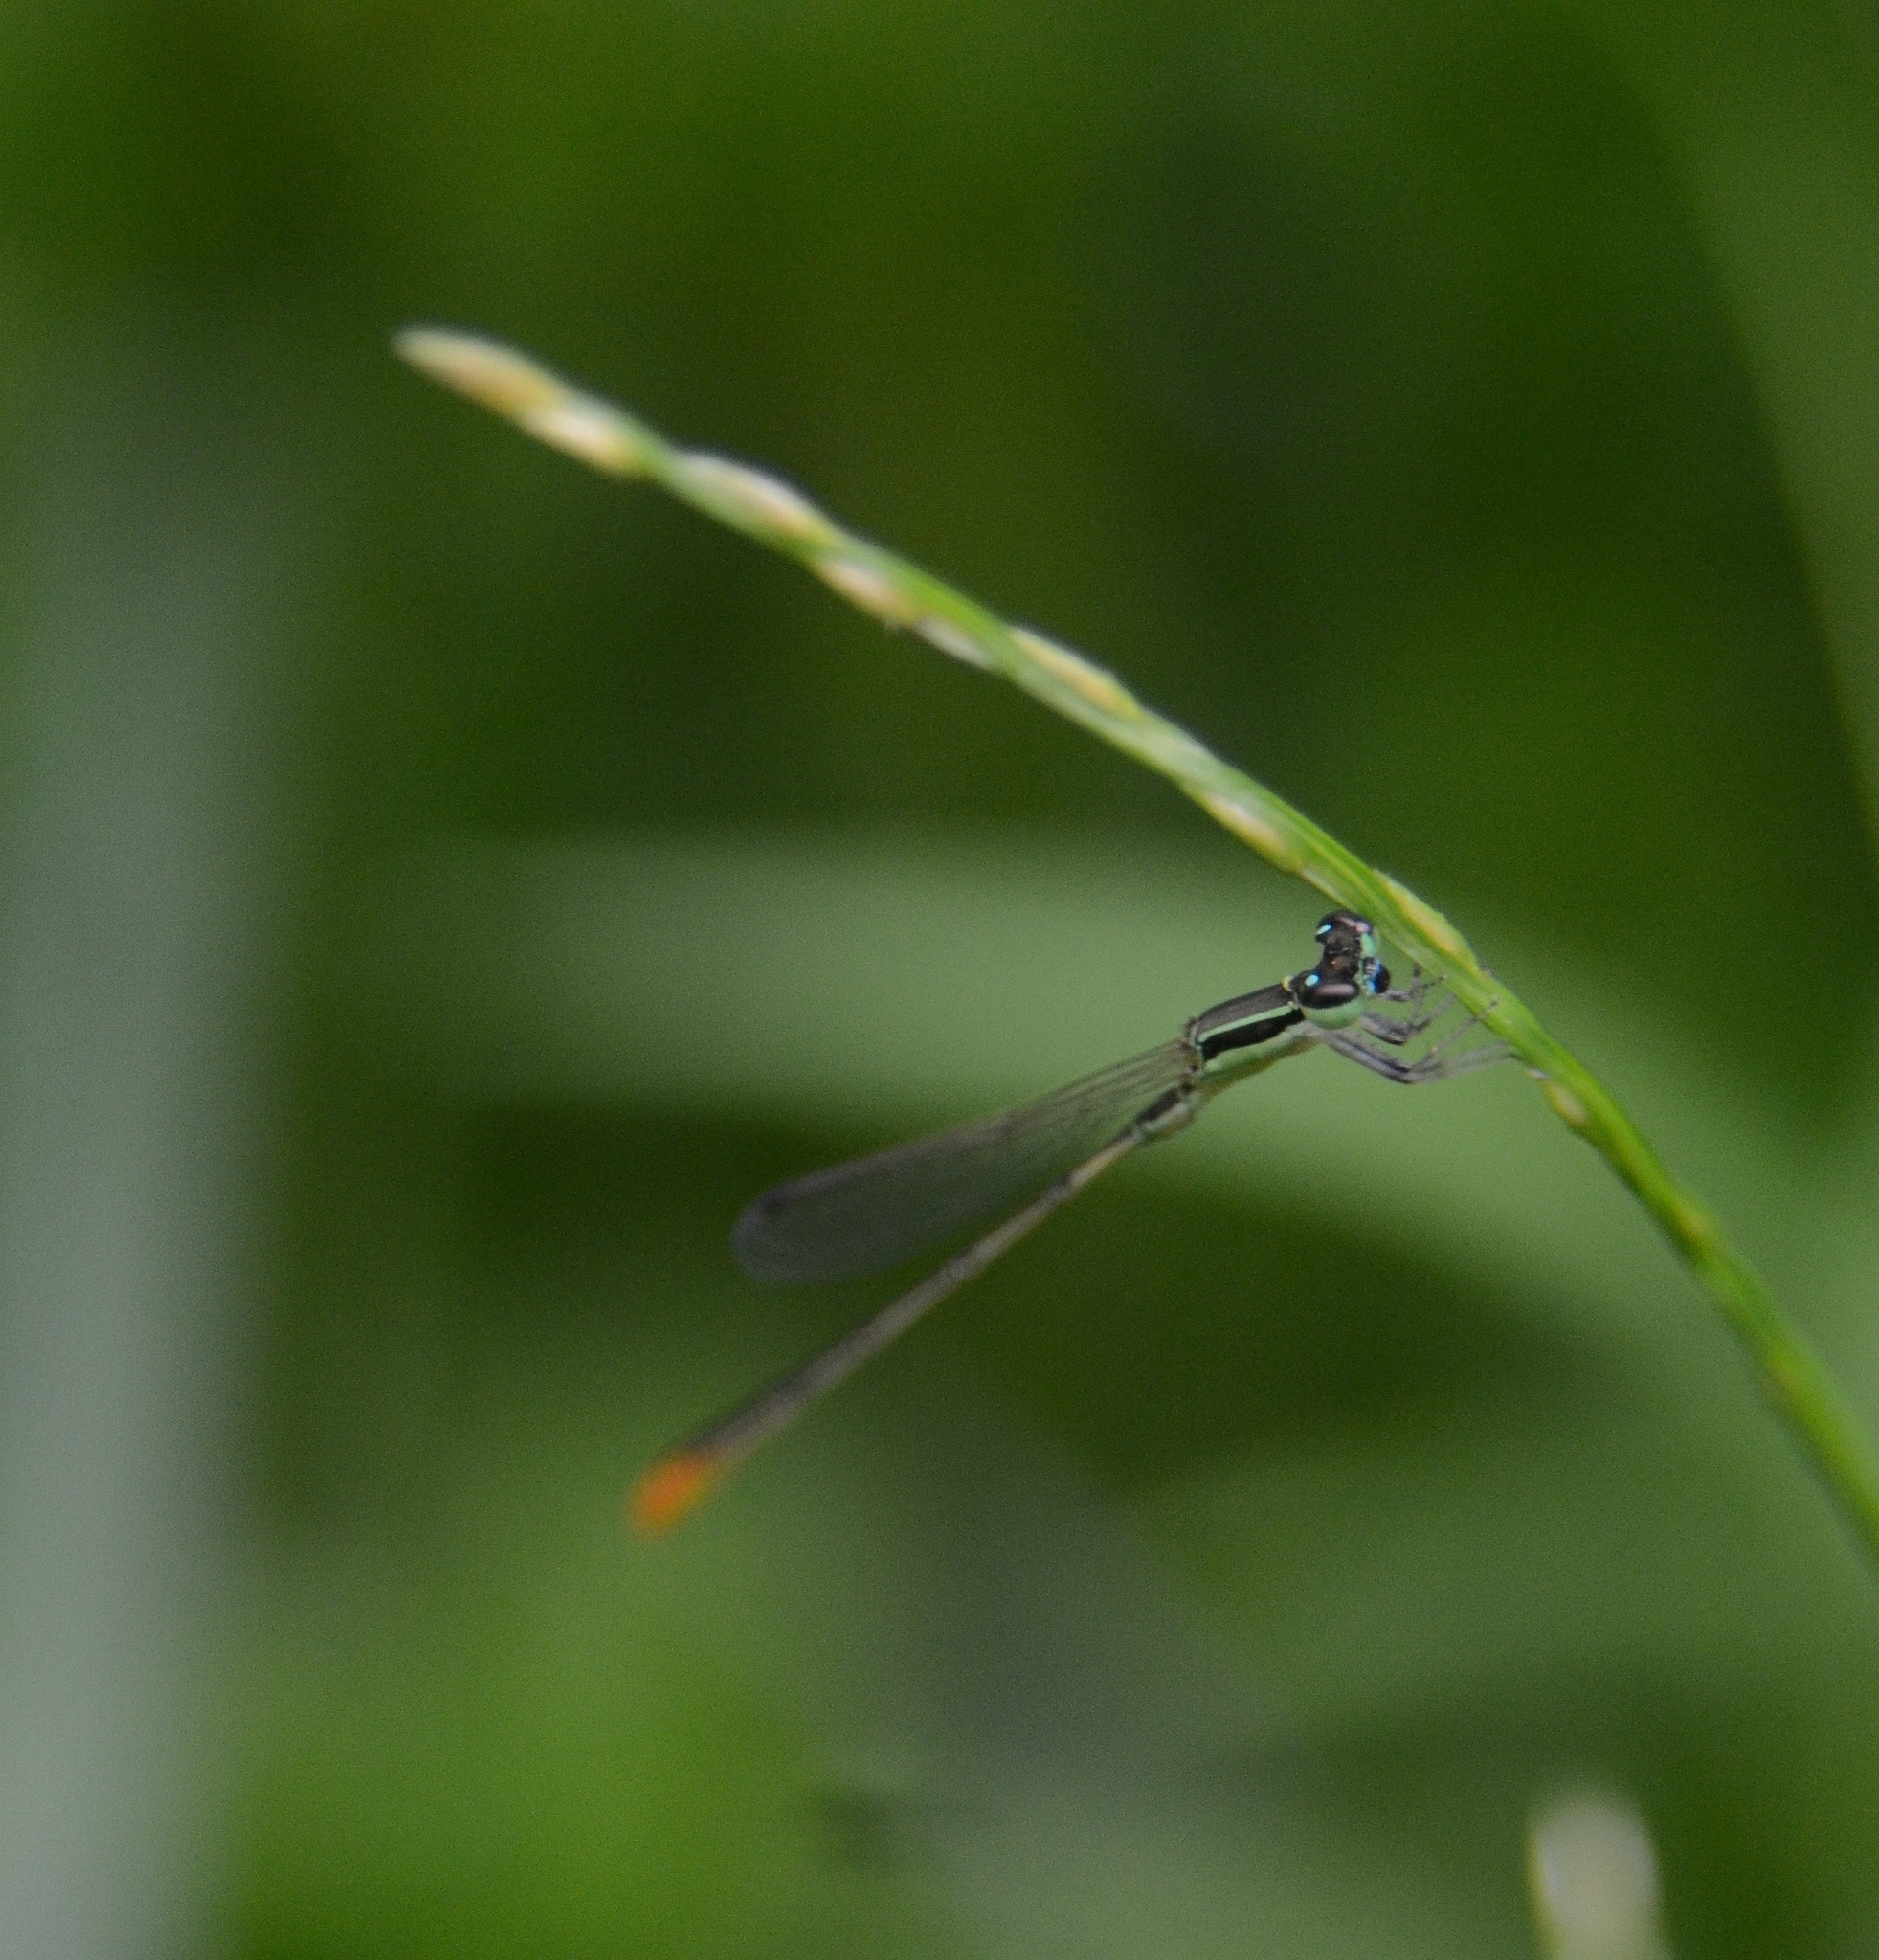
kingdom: Animalia
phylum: Arthropoda
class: Insecta
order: Odonata
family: Coenagrionidae
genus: Agriocnemis
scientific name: Agriocnemis pygmaea
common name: Pygmy wisp
